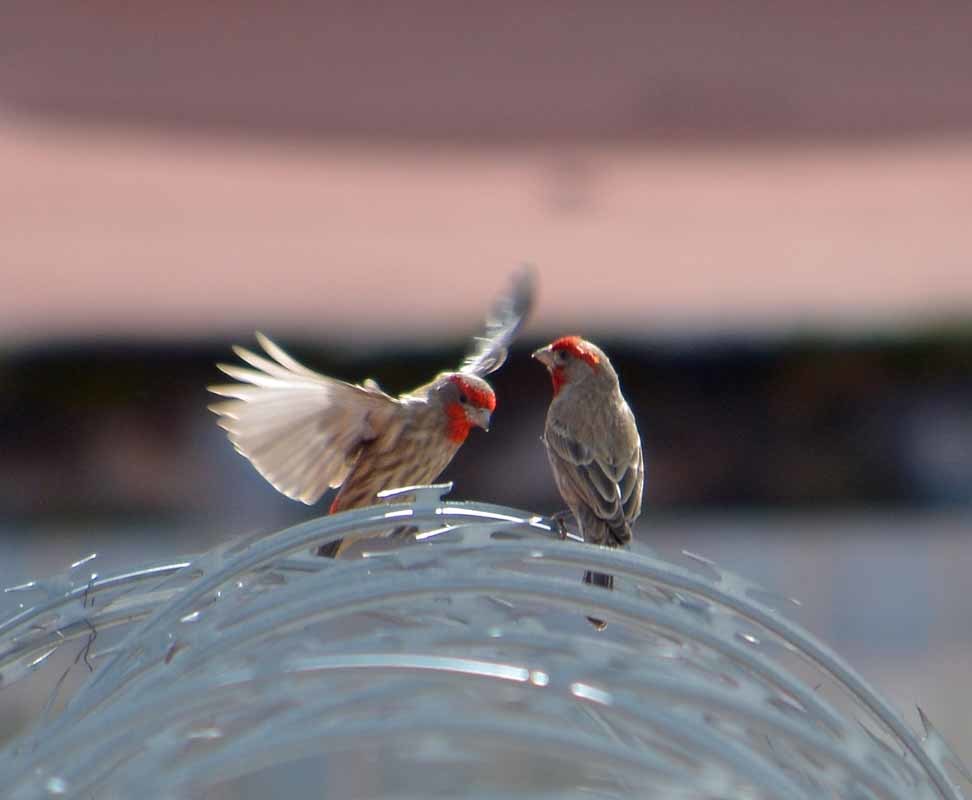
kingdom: Animalia
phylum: Chordata
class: Aves
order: Passeriformes
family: Fringillidae
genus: Haemorhous
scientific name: Haemorhous mexicanus
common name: House finch
